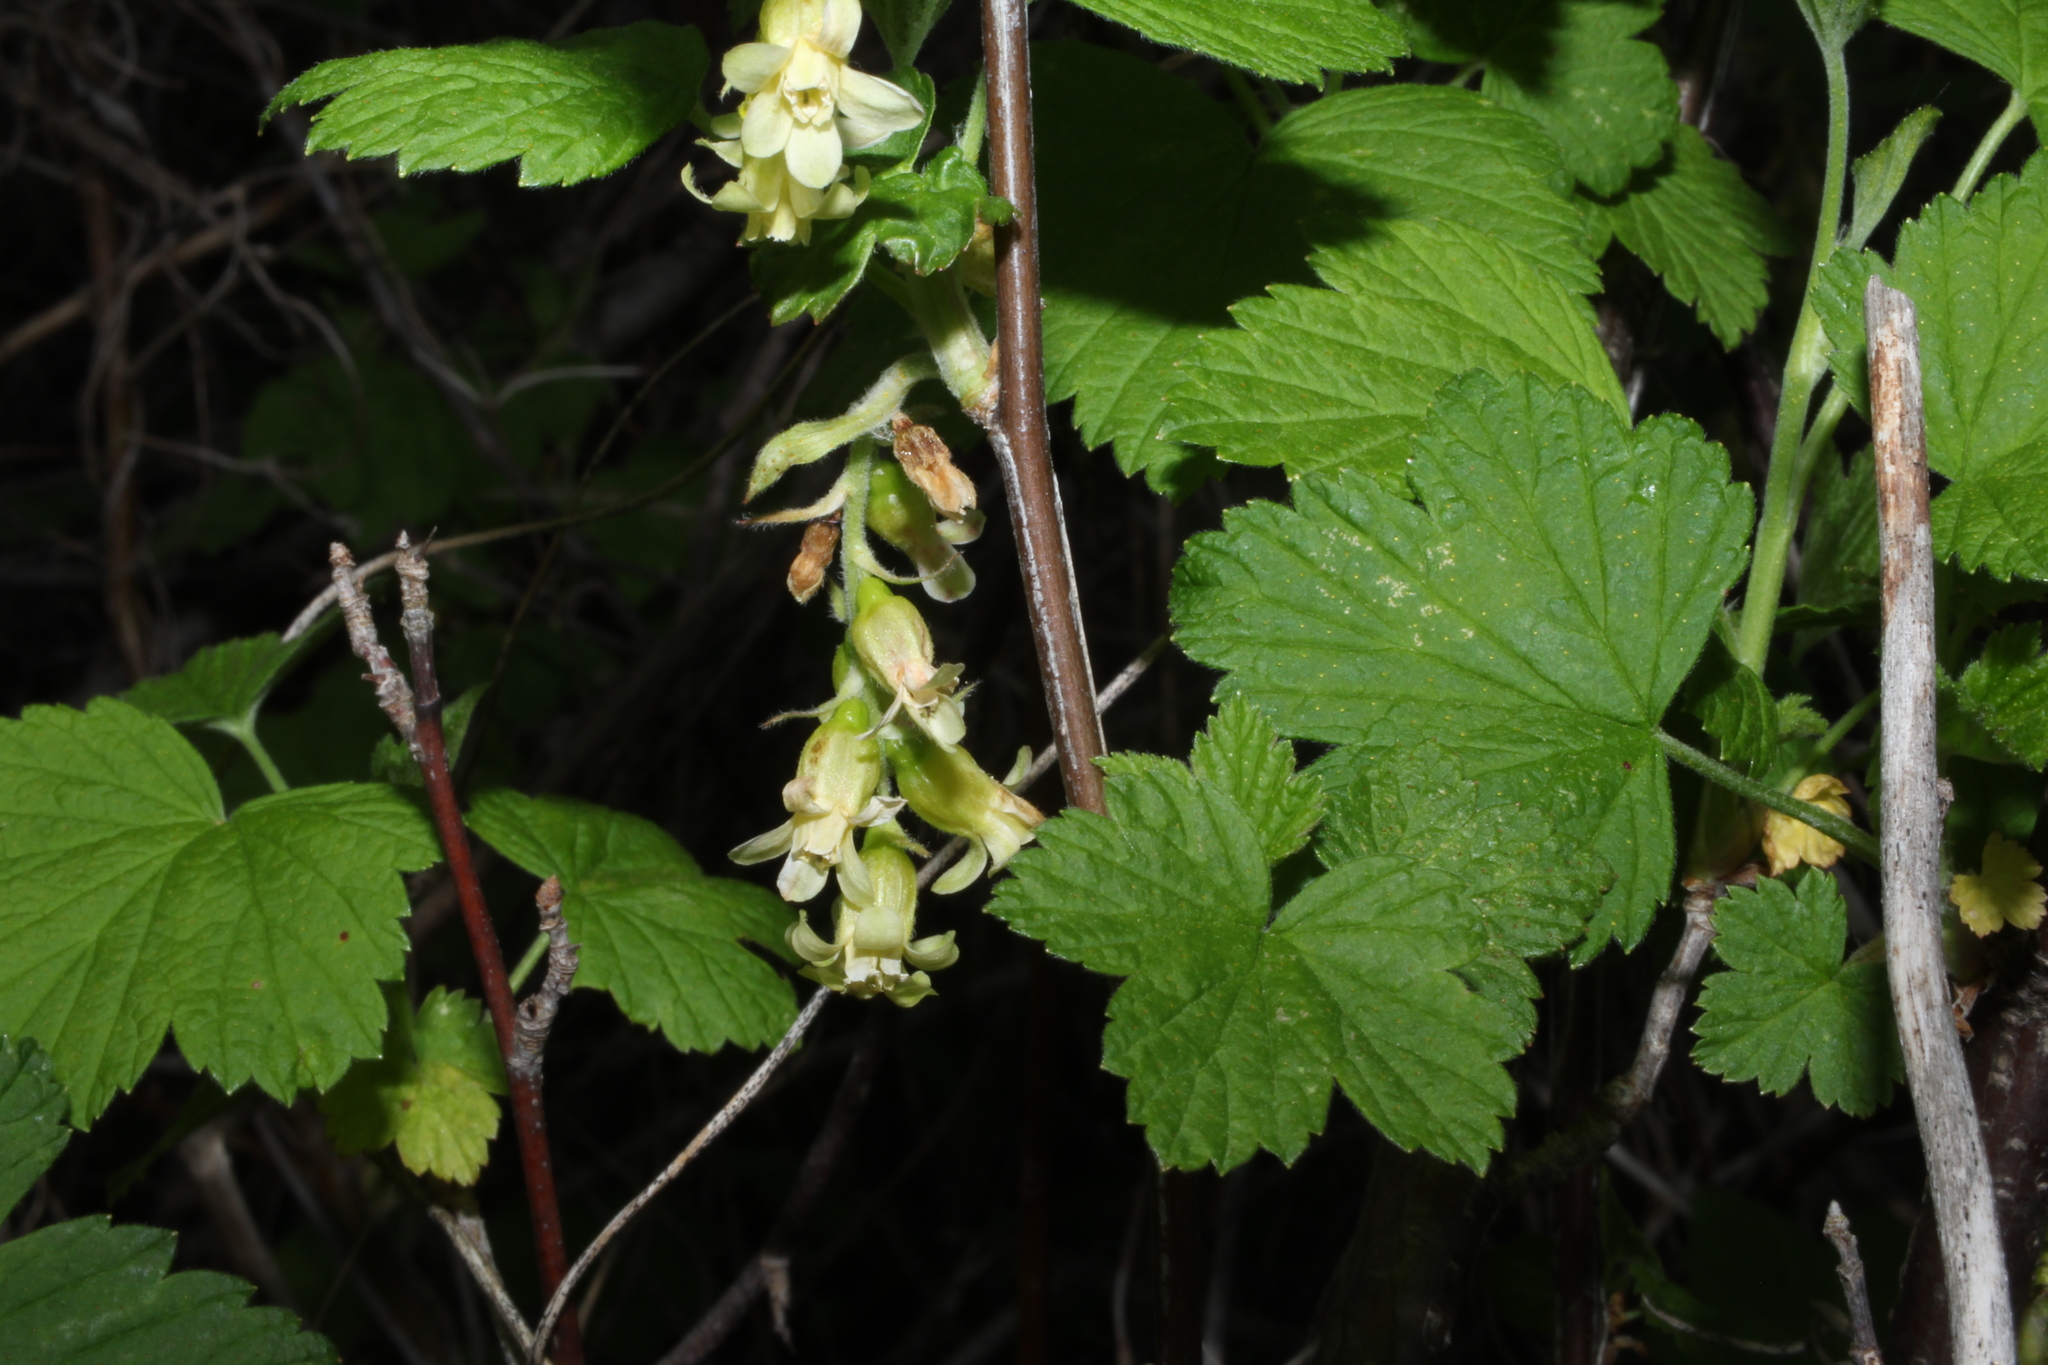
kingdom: Plantae
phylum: Tracheophyta
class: Magnoliopsida
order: Saxifragales
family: Grossulariaceae
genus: Ribes
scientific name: Ribes americanum
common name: American black currant
